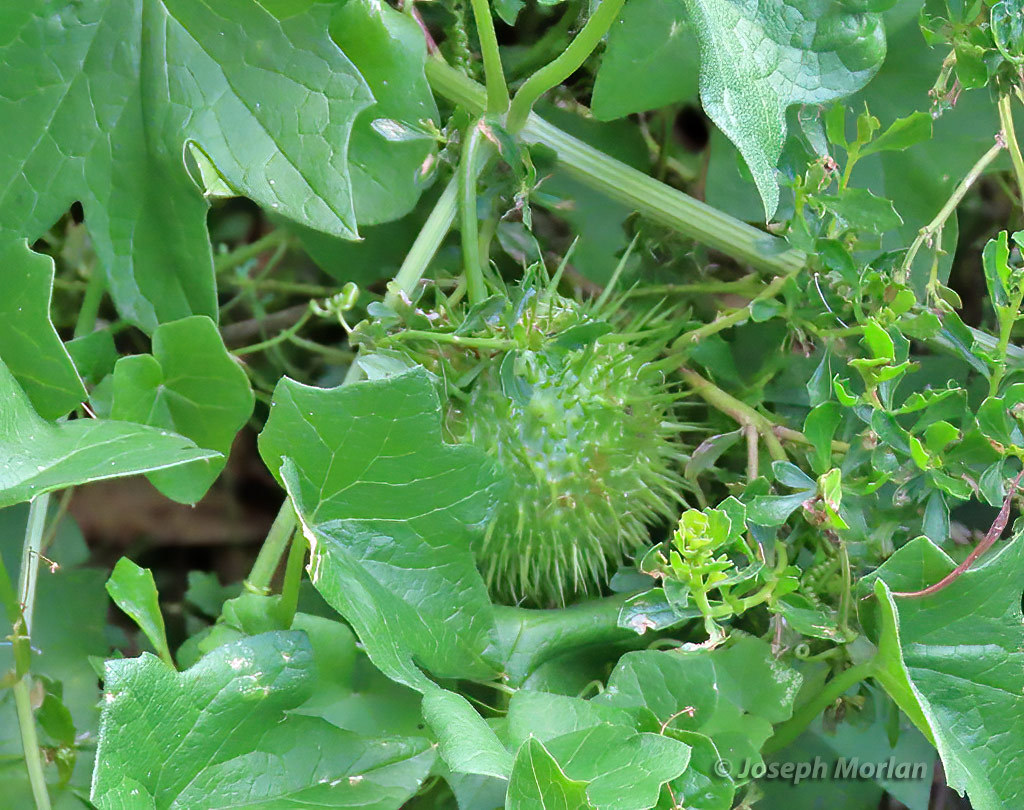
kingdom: Plantae
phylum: Tracheophyta
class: Magnoliopsida
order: Cucurbitales
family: Cucurbitaceae
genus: Marah
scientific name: Marah fabacea
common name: California manroot
